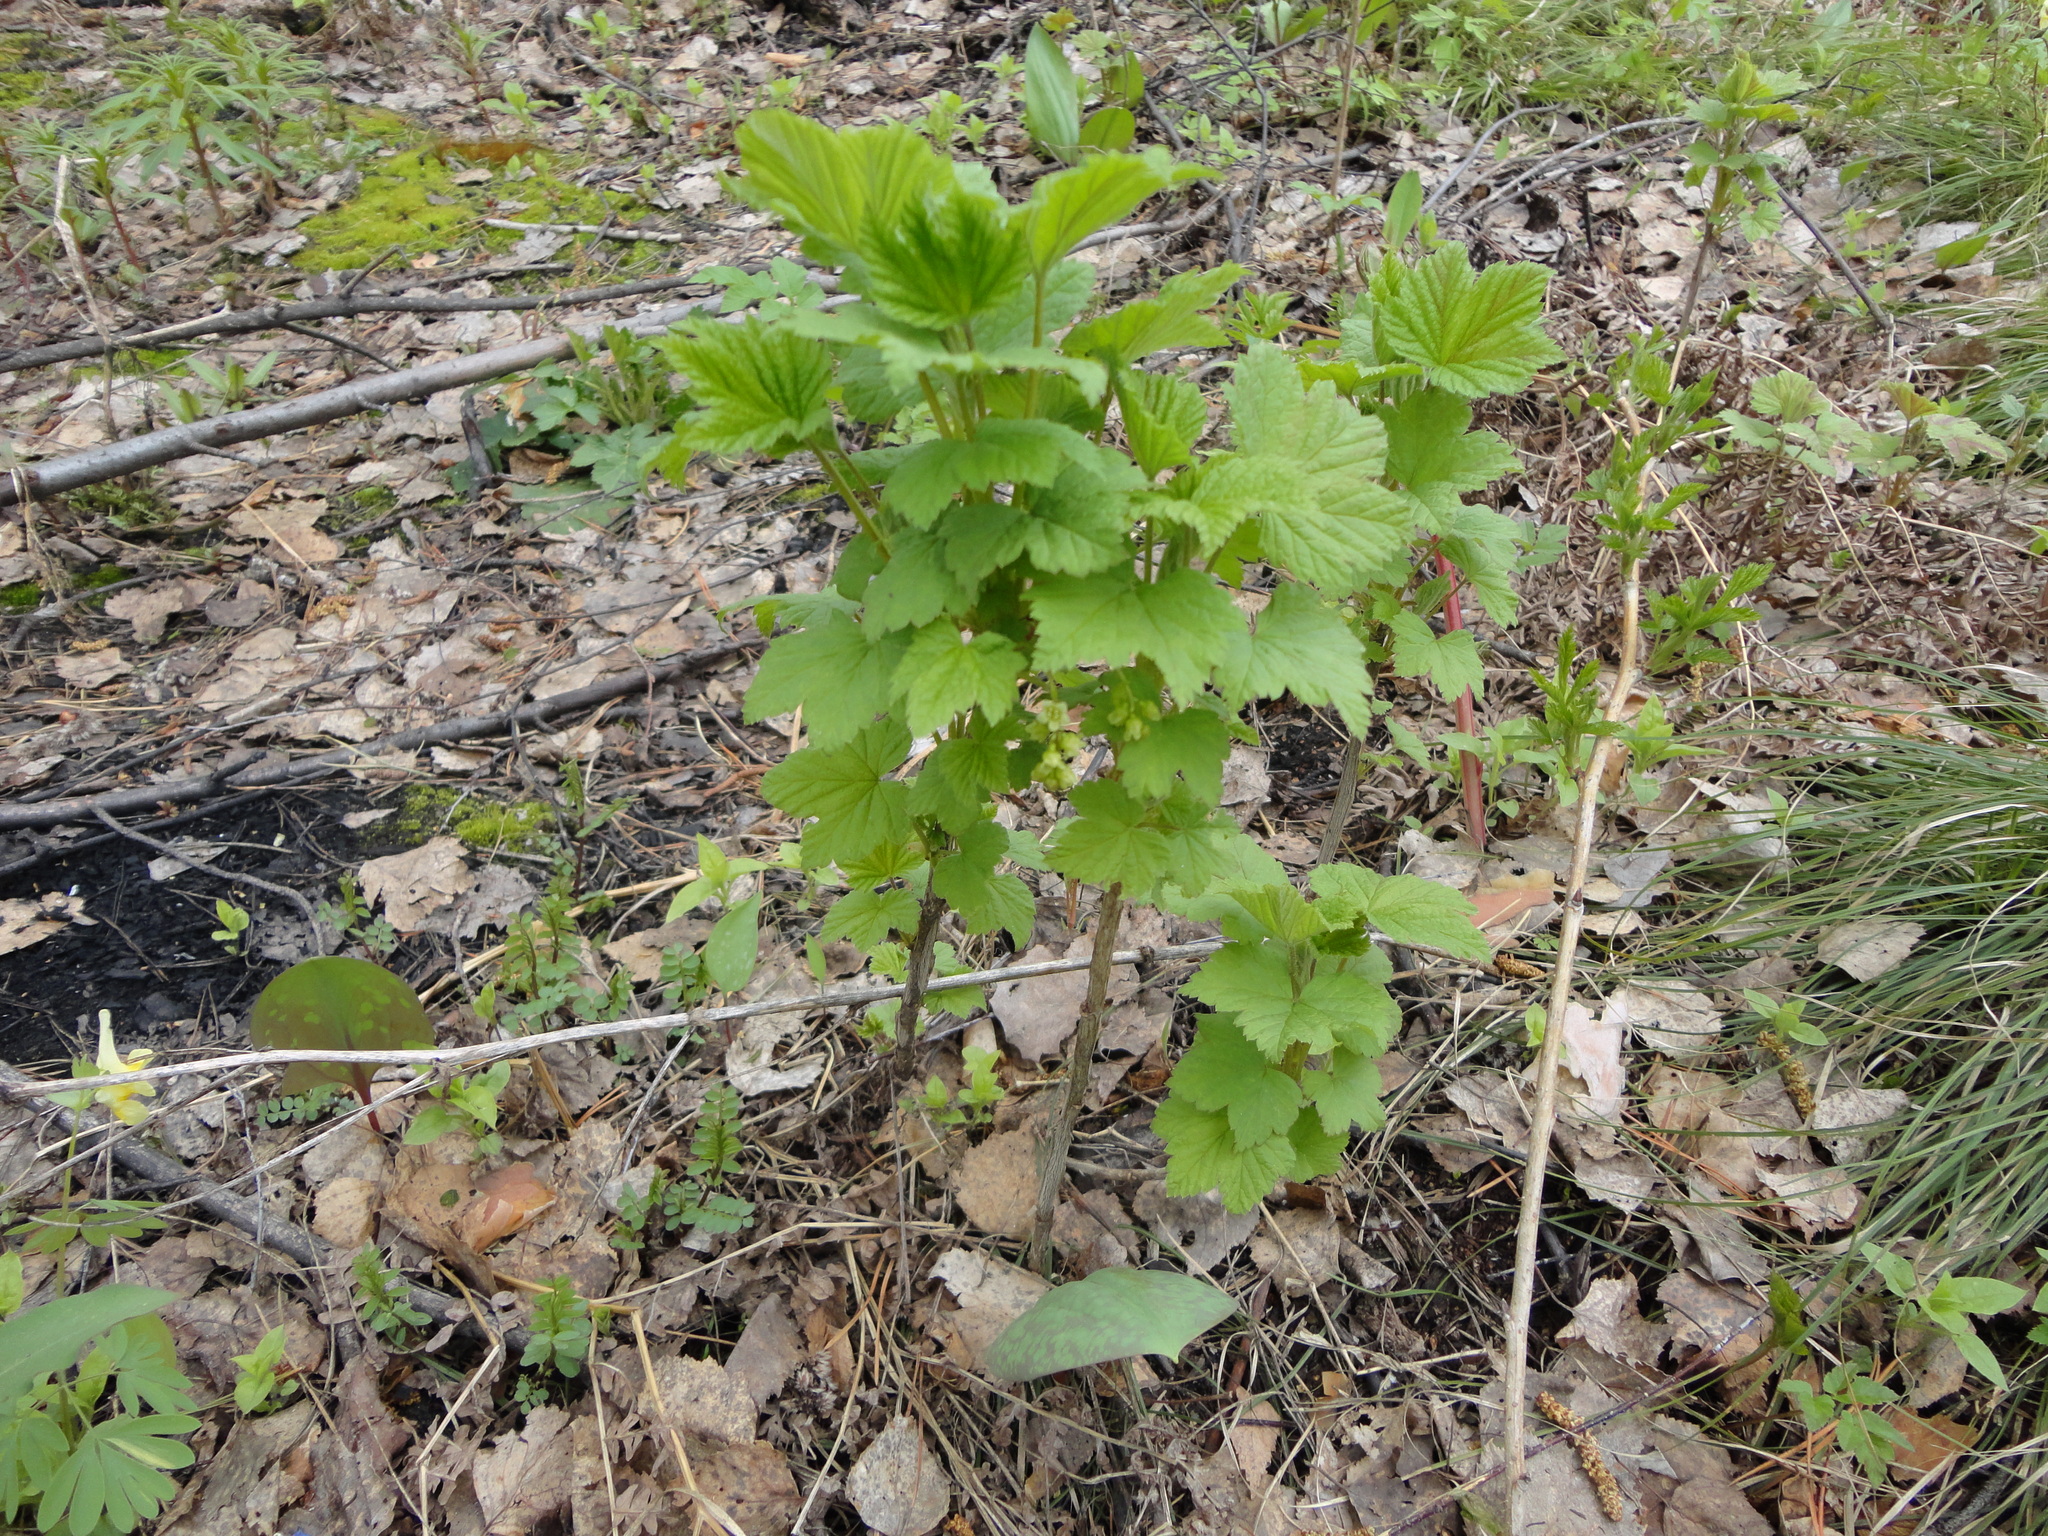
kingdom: Plantae
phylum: Tracheophyta
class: Magnoliopsida
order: Apiales
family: Apiaceae
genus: Pleurospermum
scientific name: Pleurospermum uralense
